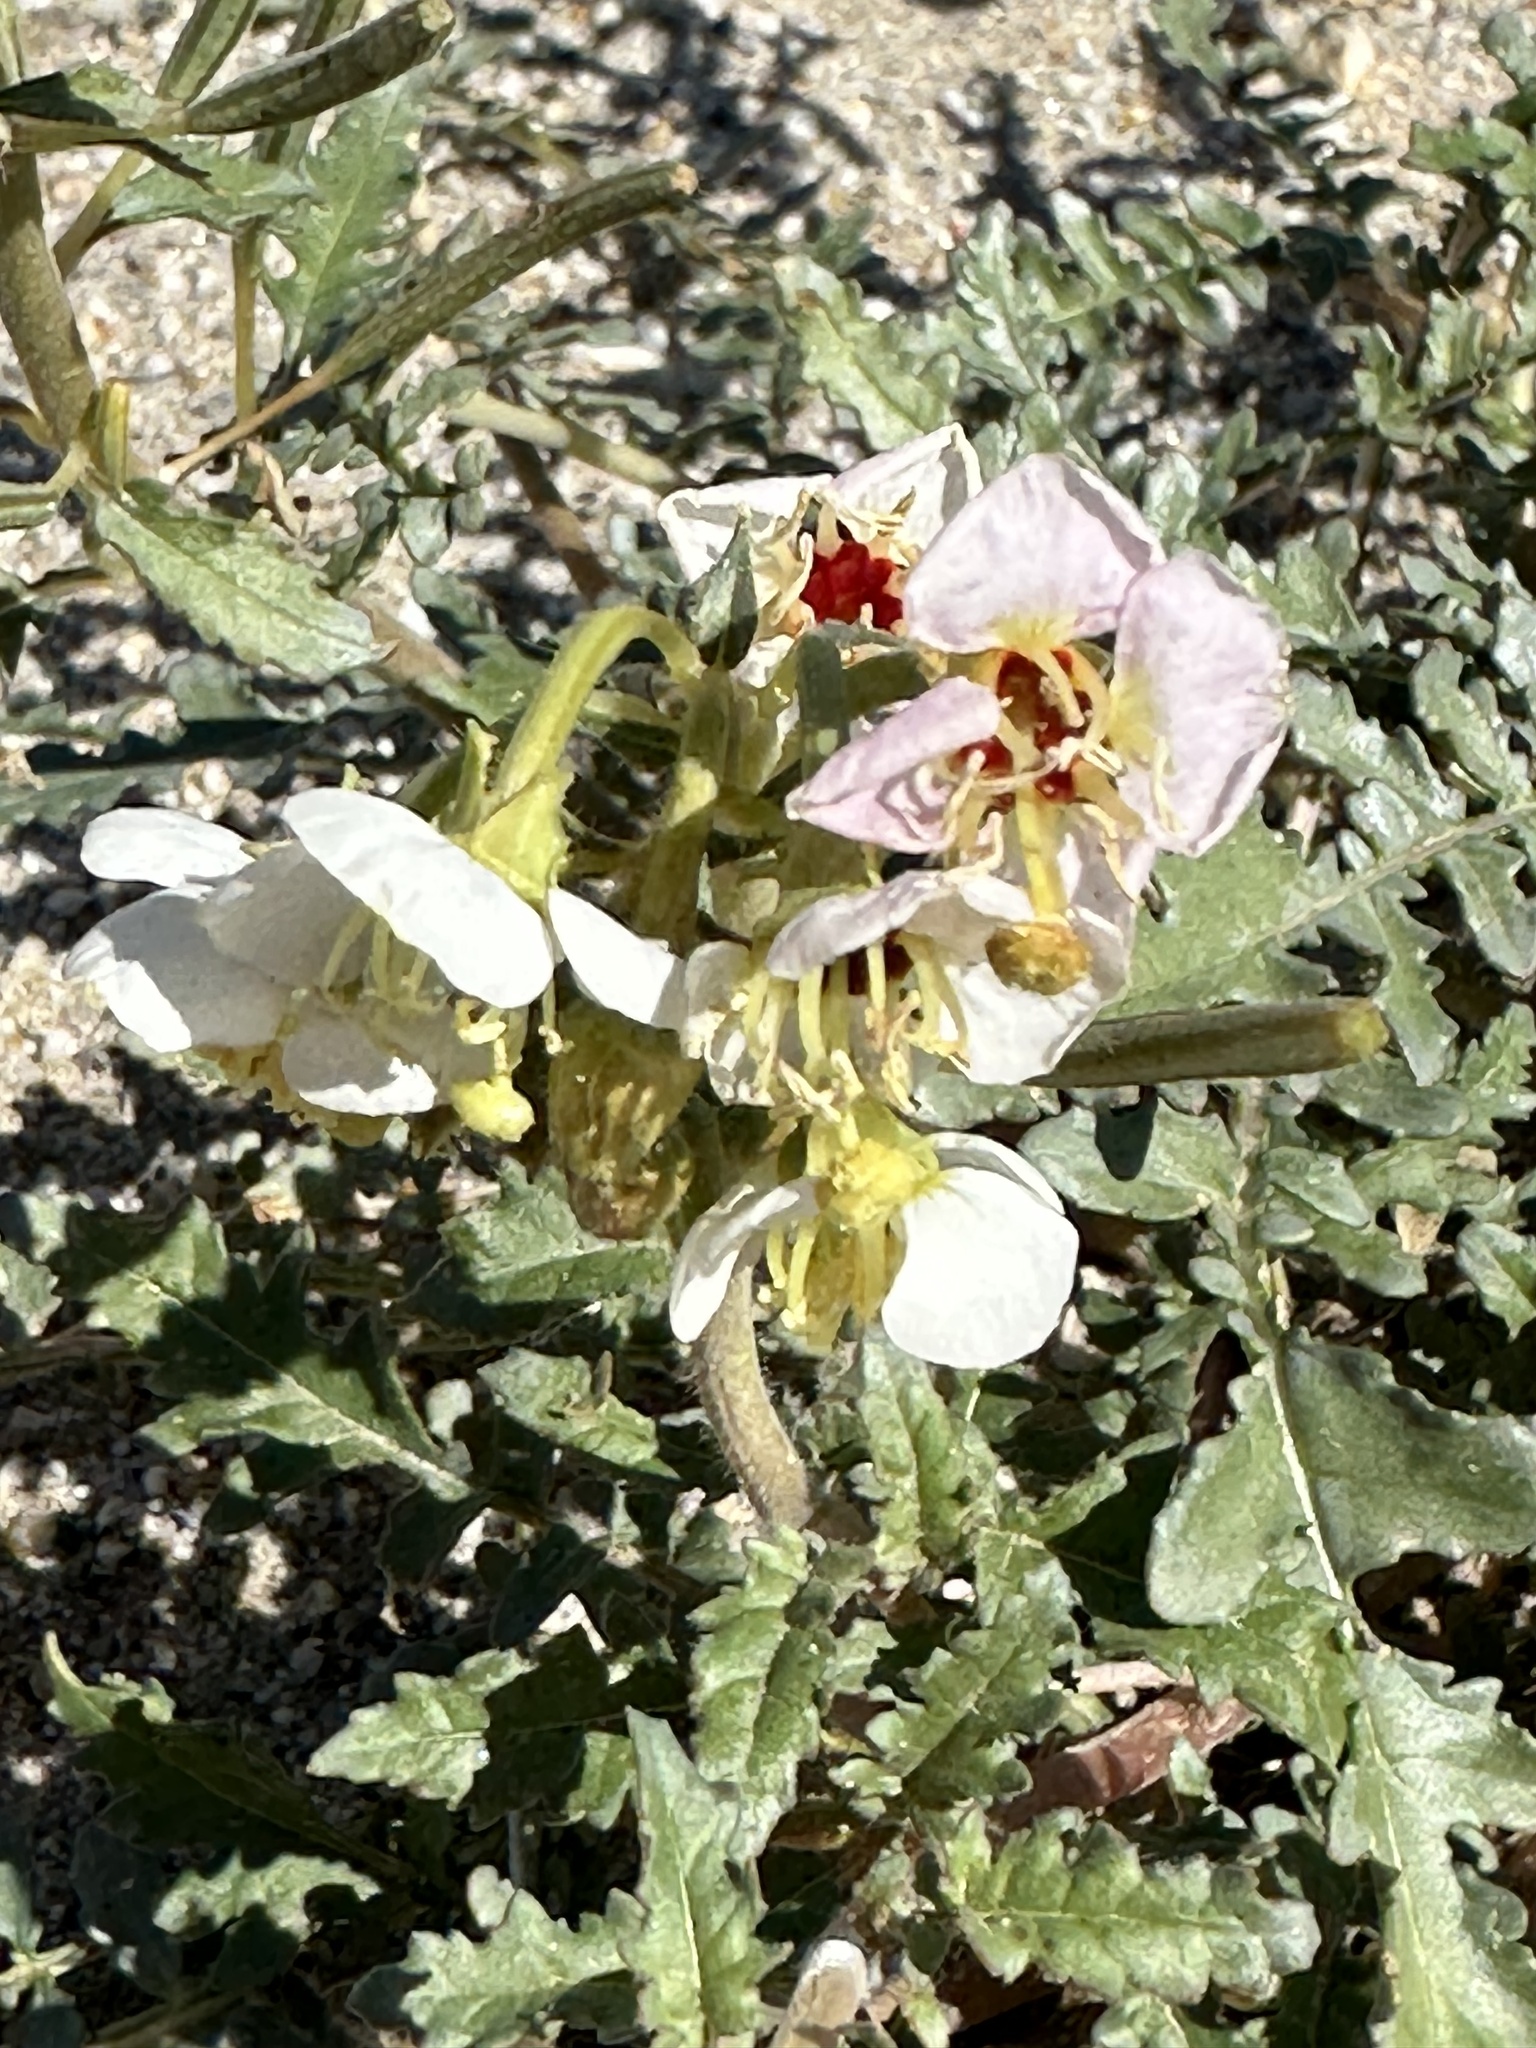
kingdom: Plantae
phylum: Tracheophyta
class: Magnoliopsida
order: Myrtales
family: Onagraceae
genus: Chylismia
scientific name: Chylismia claviformis
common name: Browneyes
